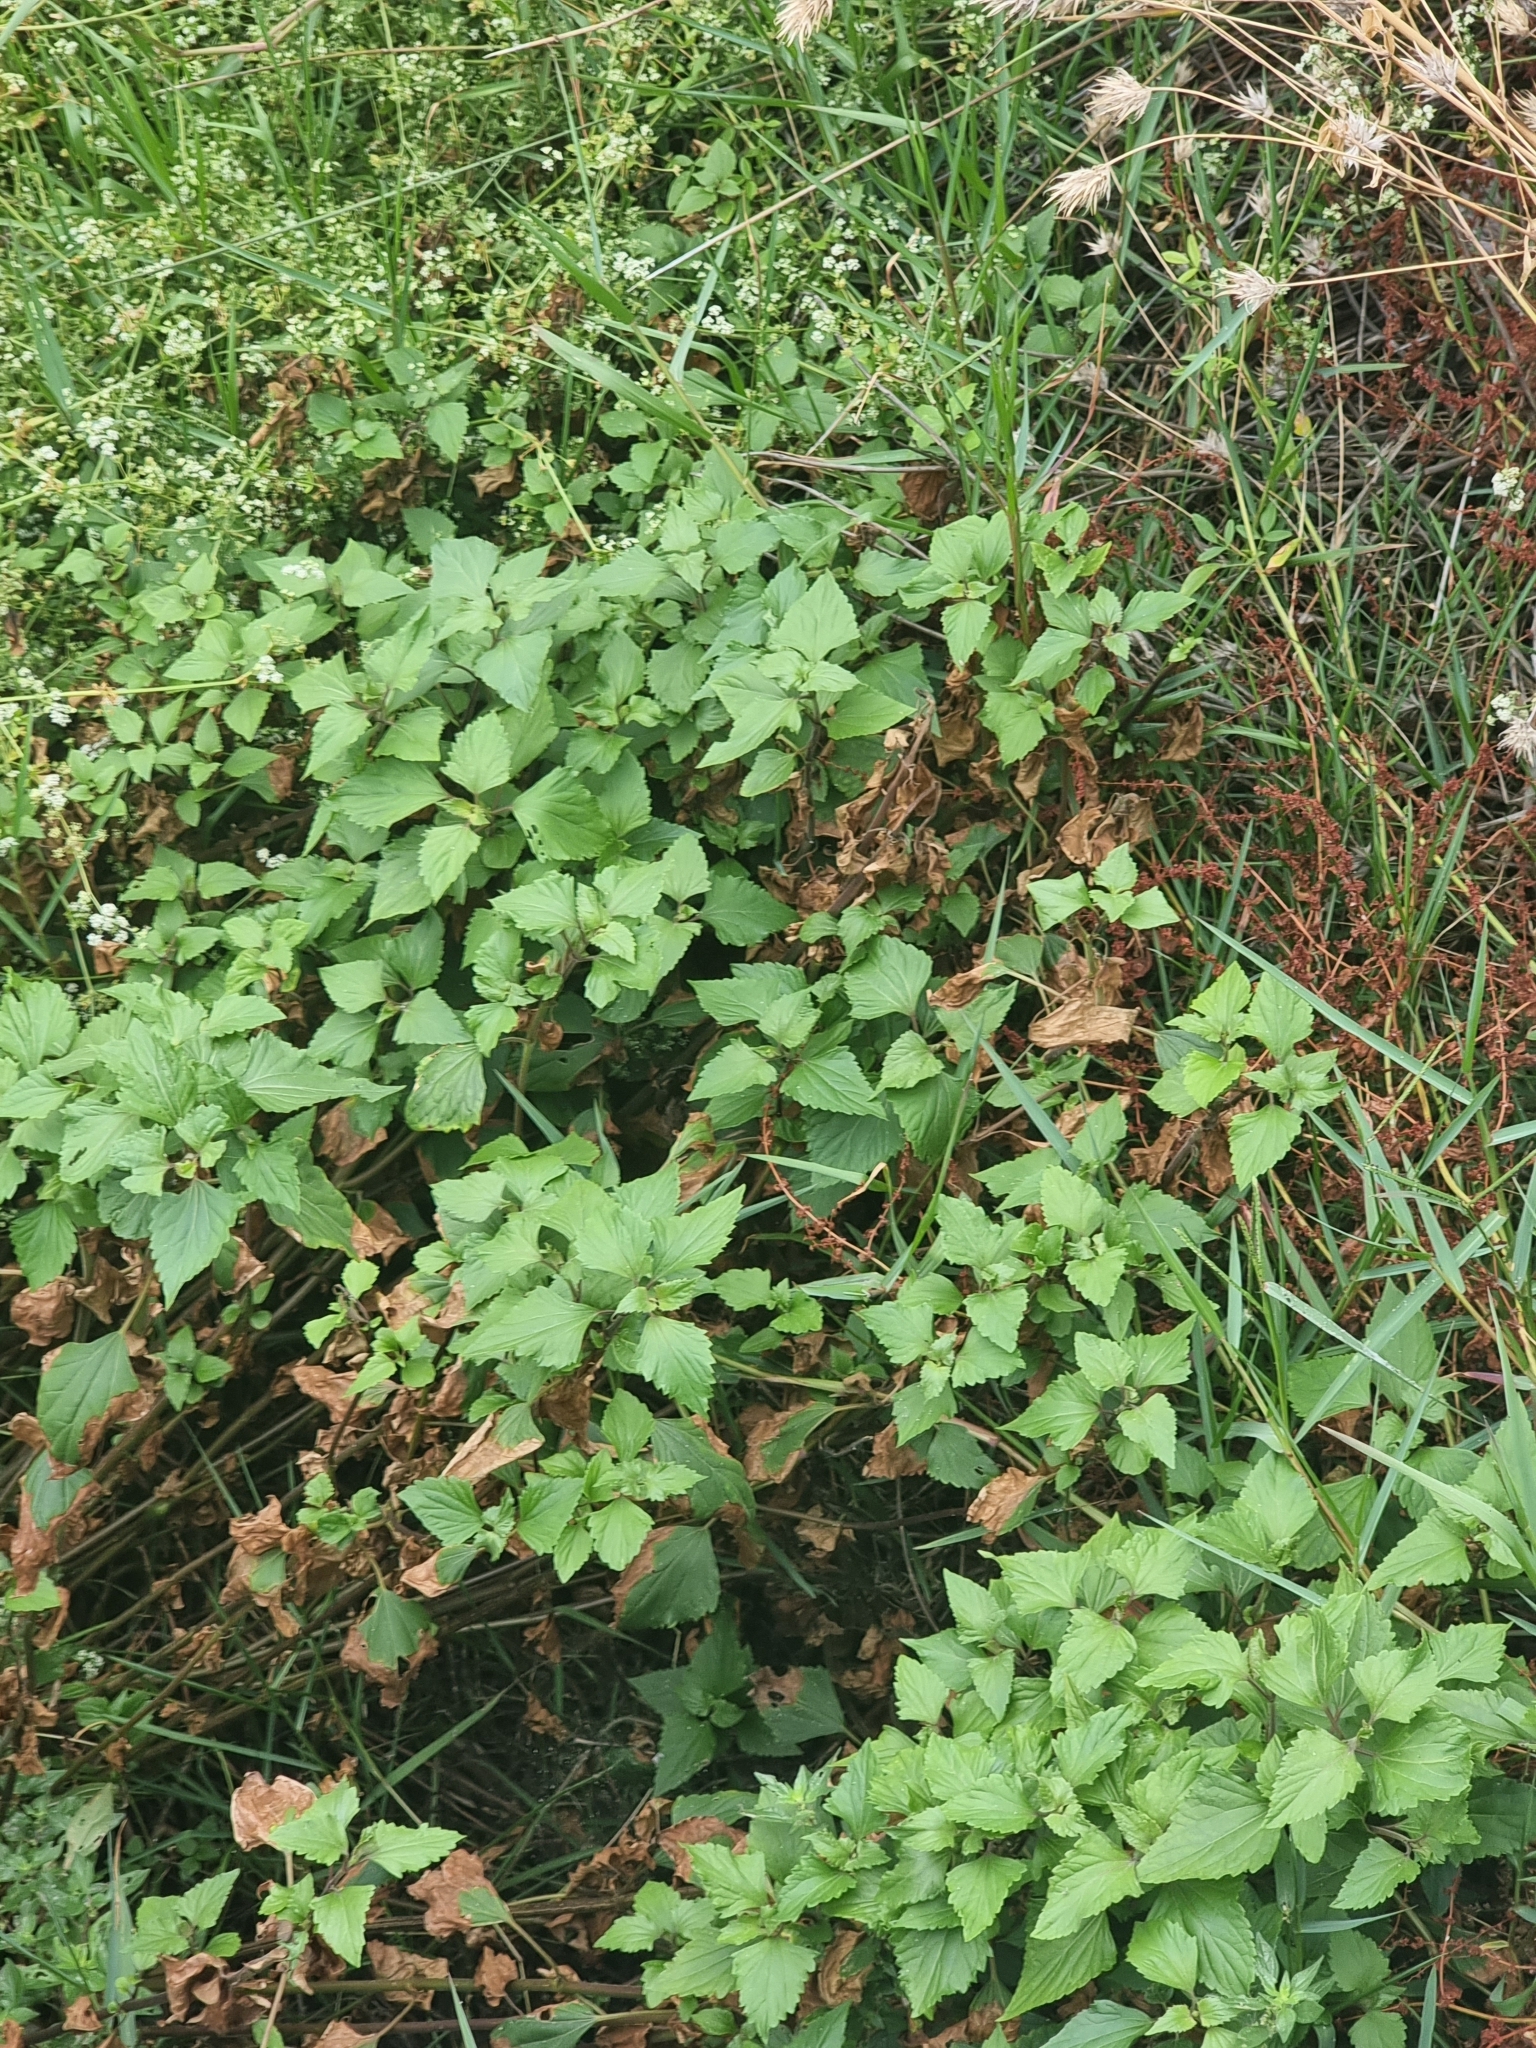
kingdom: Plantae
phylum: Tracheophyta
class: Magnoliopsida
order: Asterales
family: Asteraceae
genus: Ageratina
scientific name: Ageratina adenophora
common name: Sticky snakeroot
